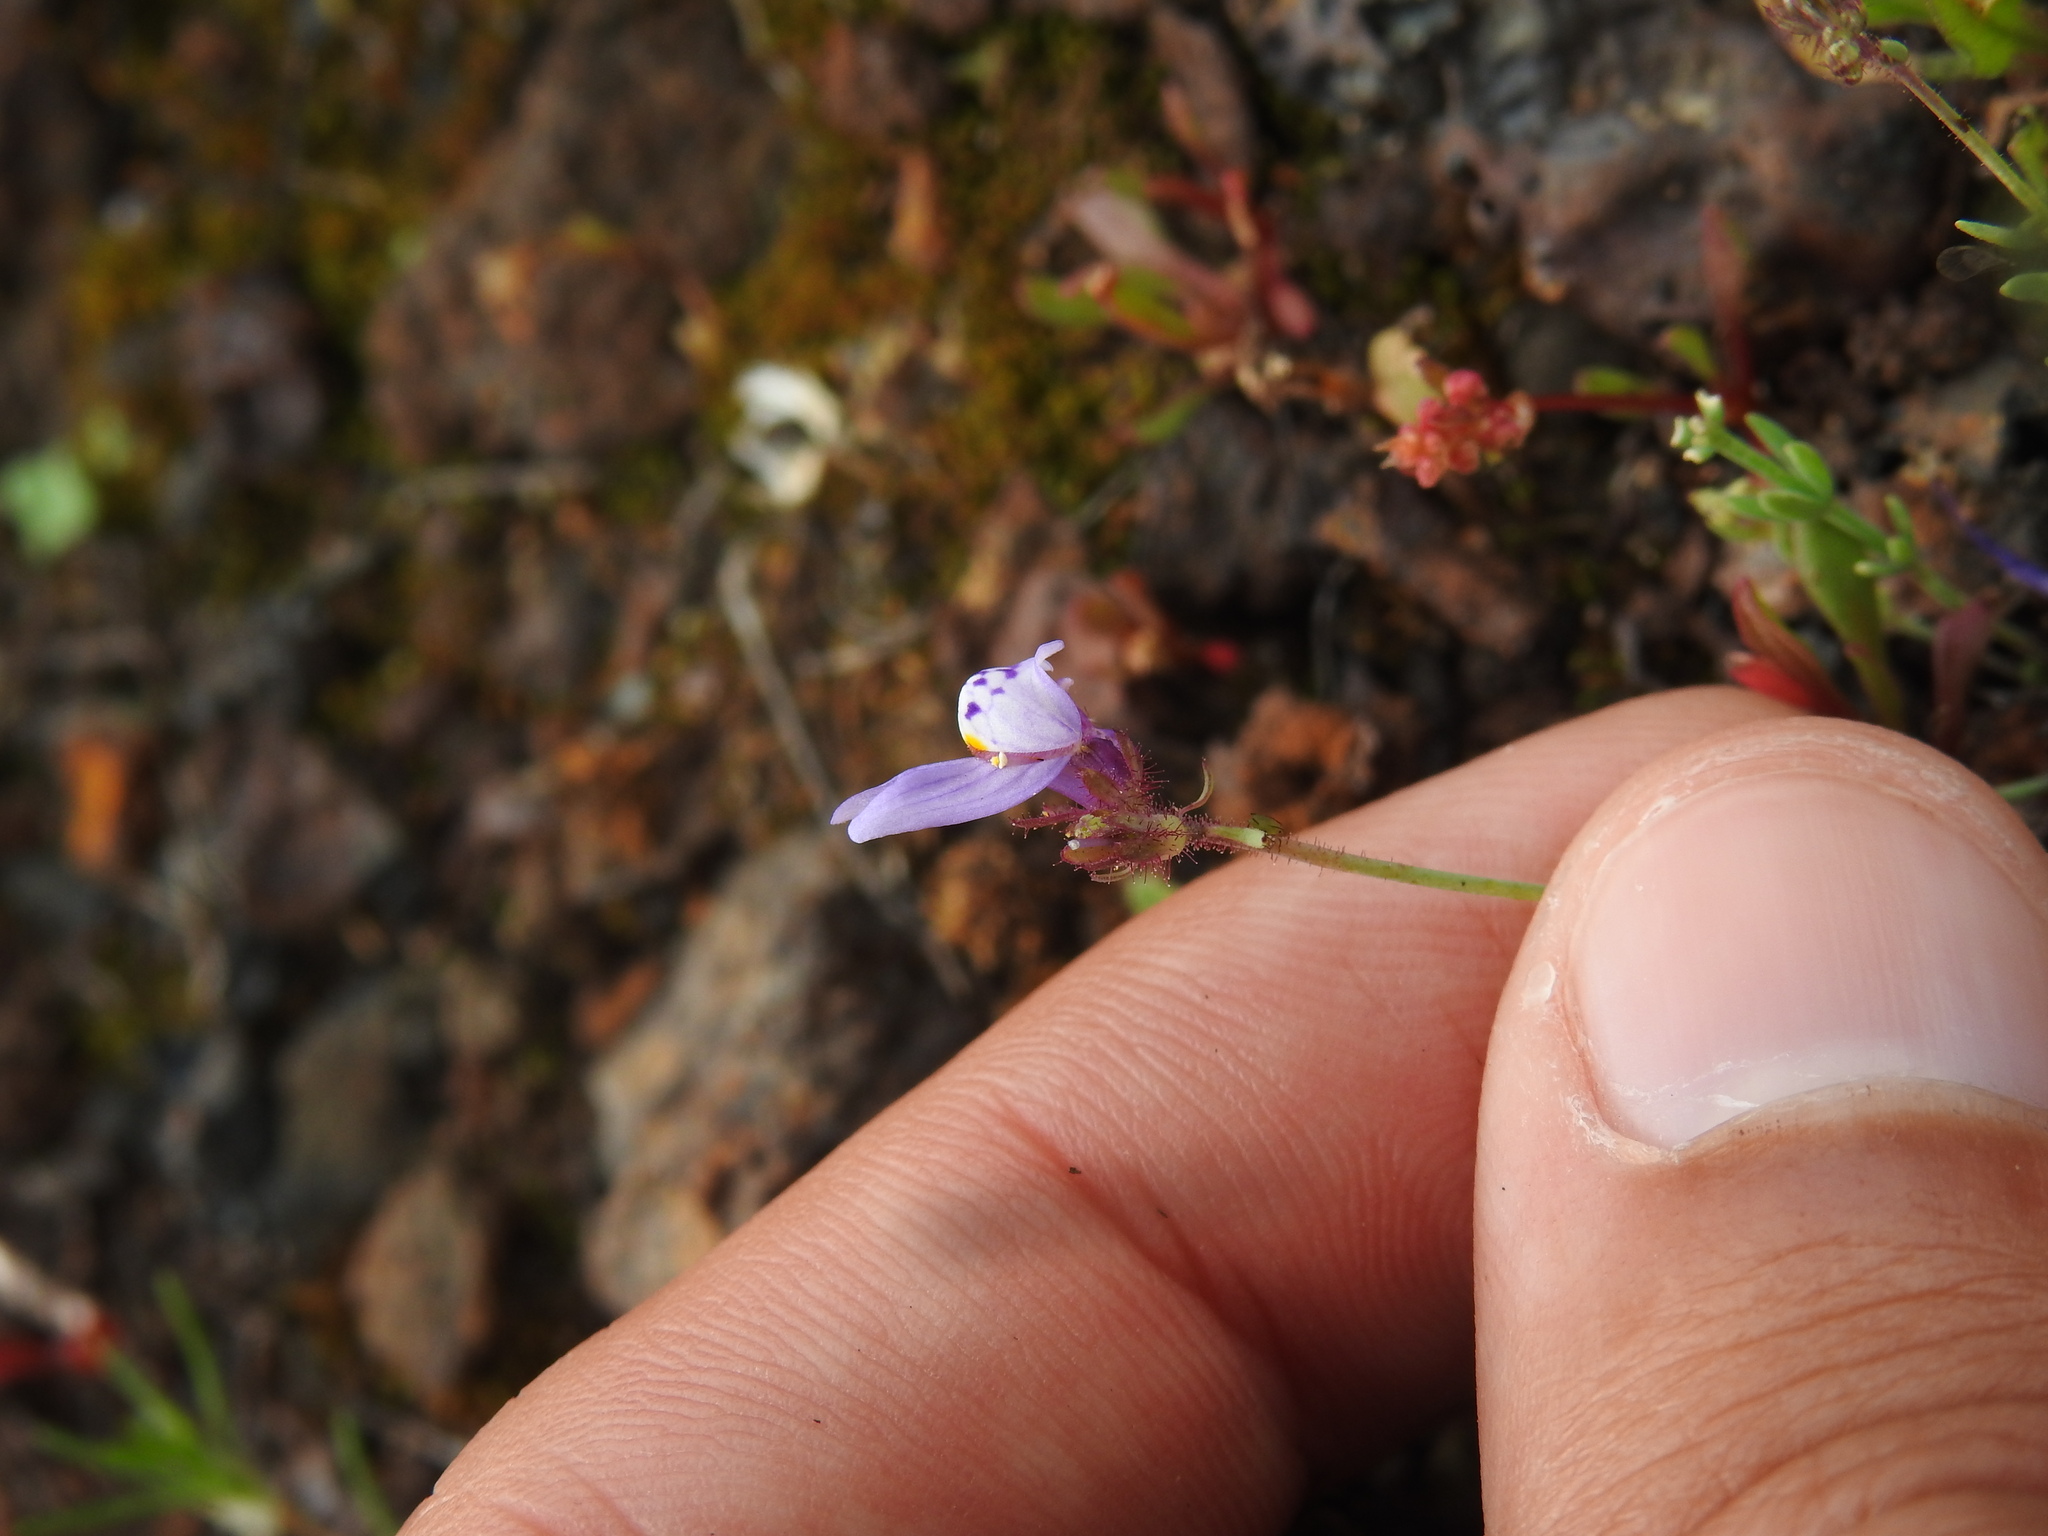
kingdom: Plantae
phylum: Tracheophyta
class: Magnoliopsida
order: Lamiales
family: Plantaginaceae
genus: Linaria
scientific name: Linaria amethystea
